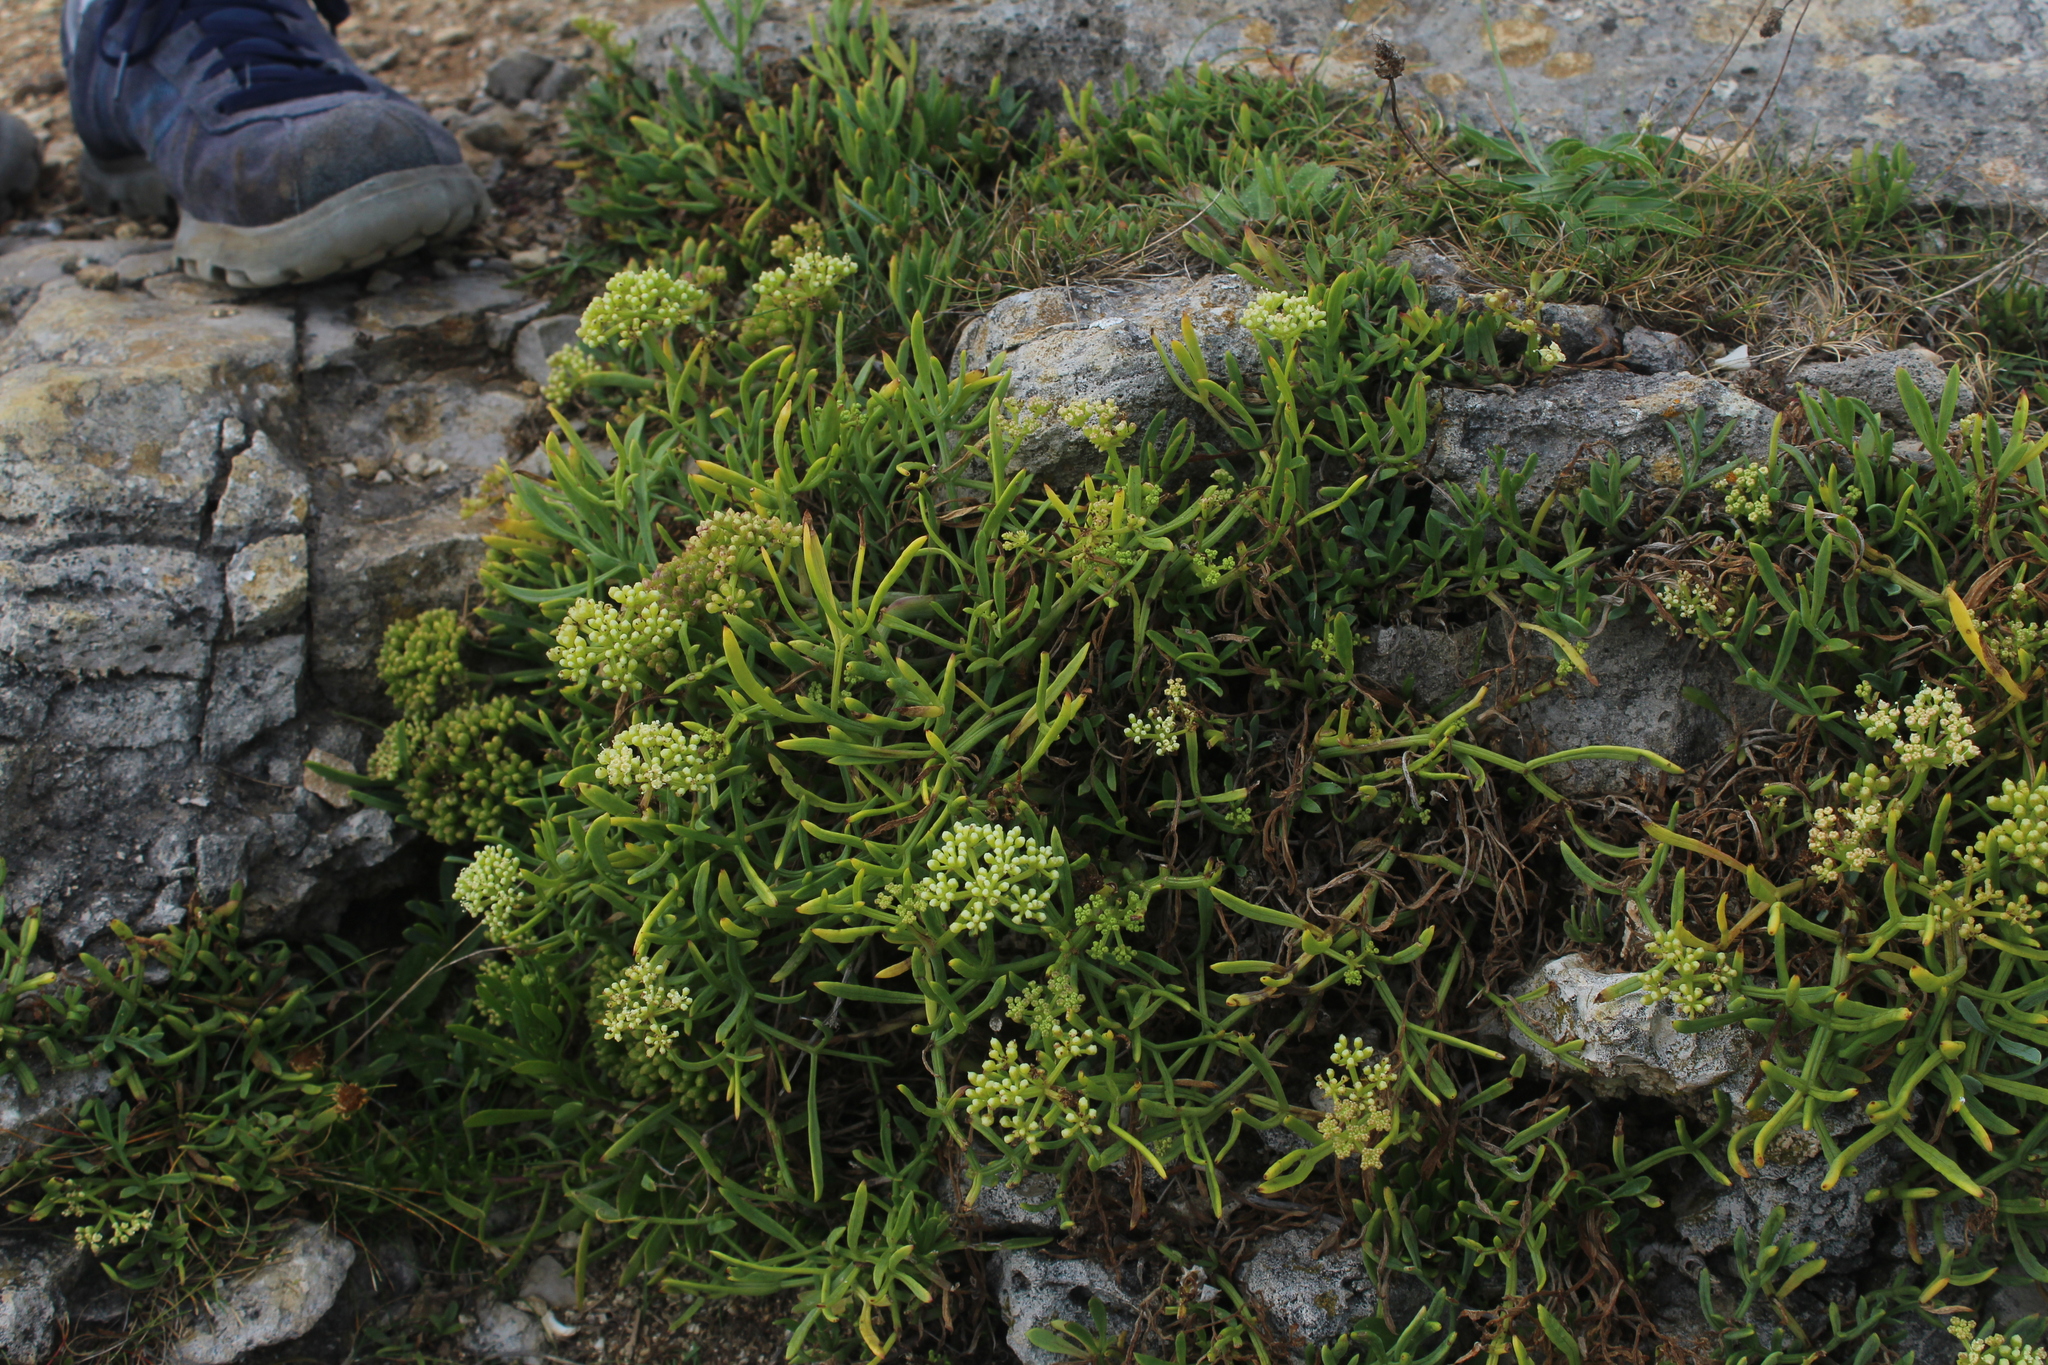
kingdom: Plantae
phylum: Tracheophyta
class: Magnoliopsida
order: Apiales
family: Apiaceae
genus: Crithmum
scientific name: Crithmum maritimum
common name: Rock samphire
